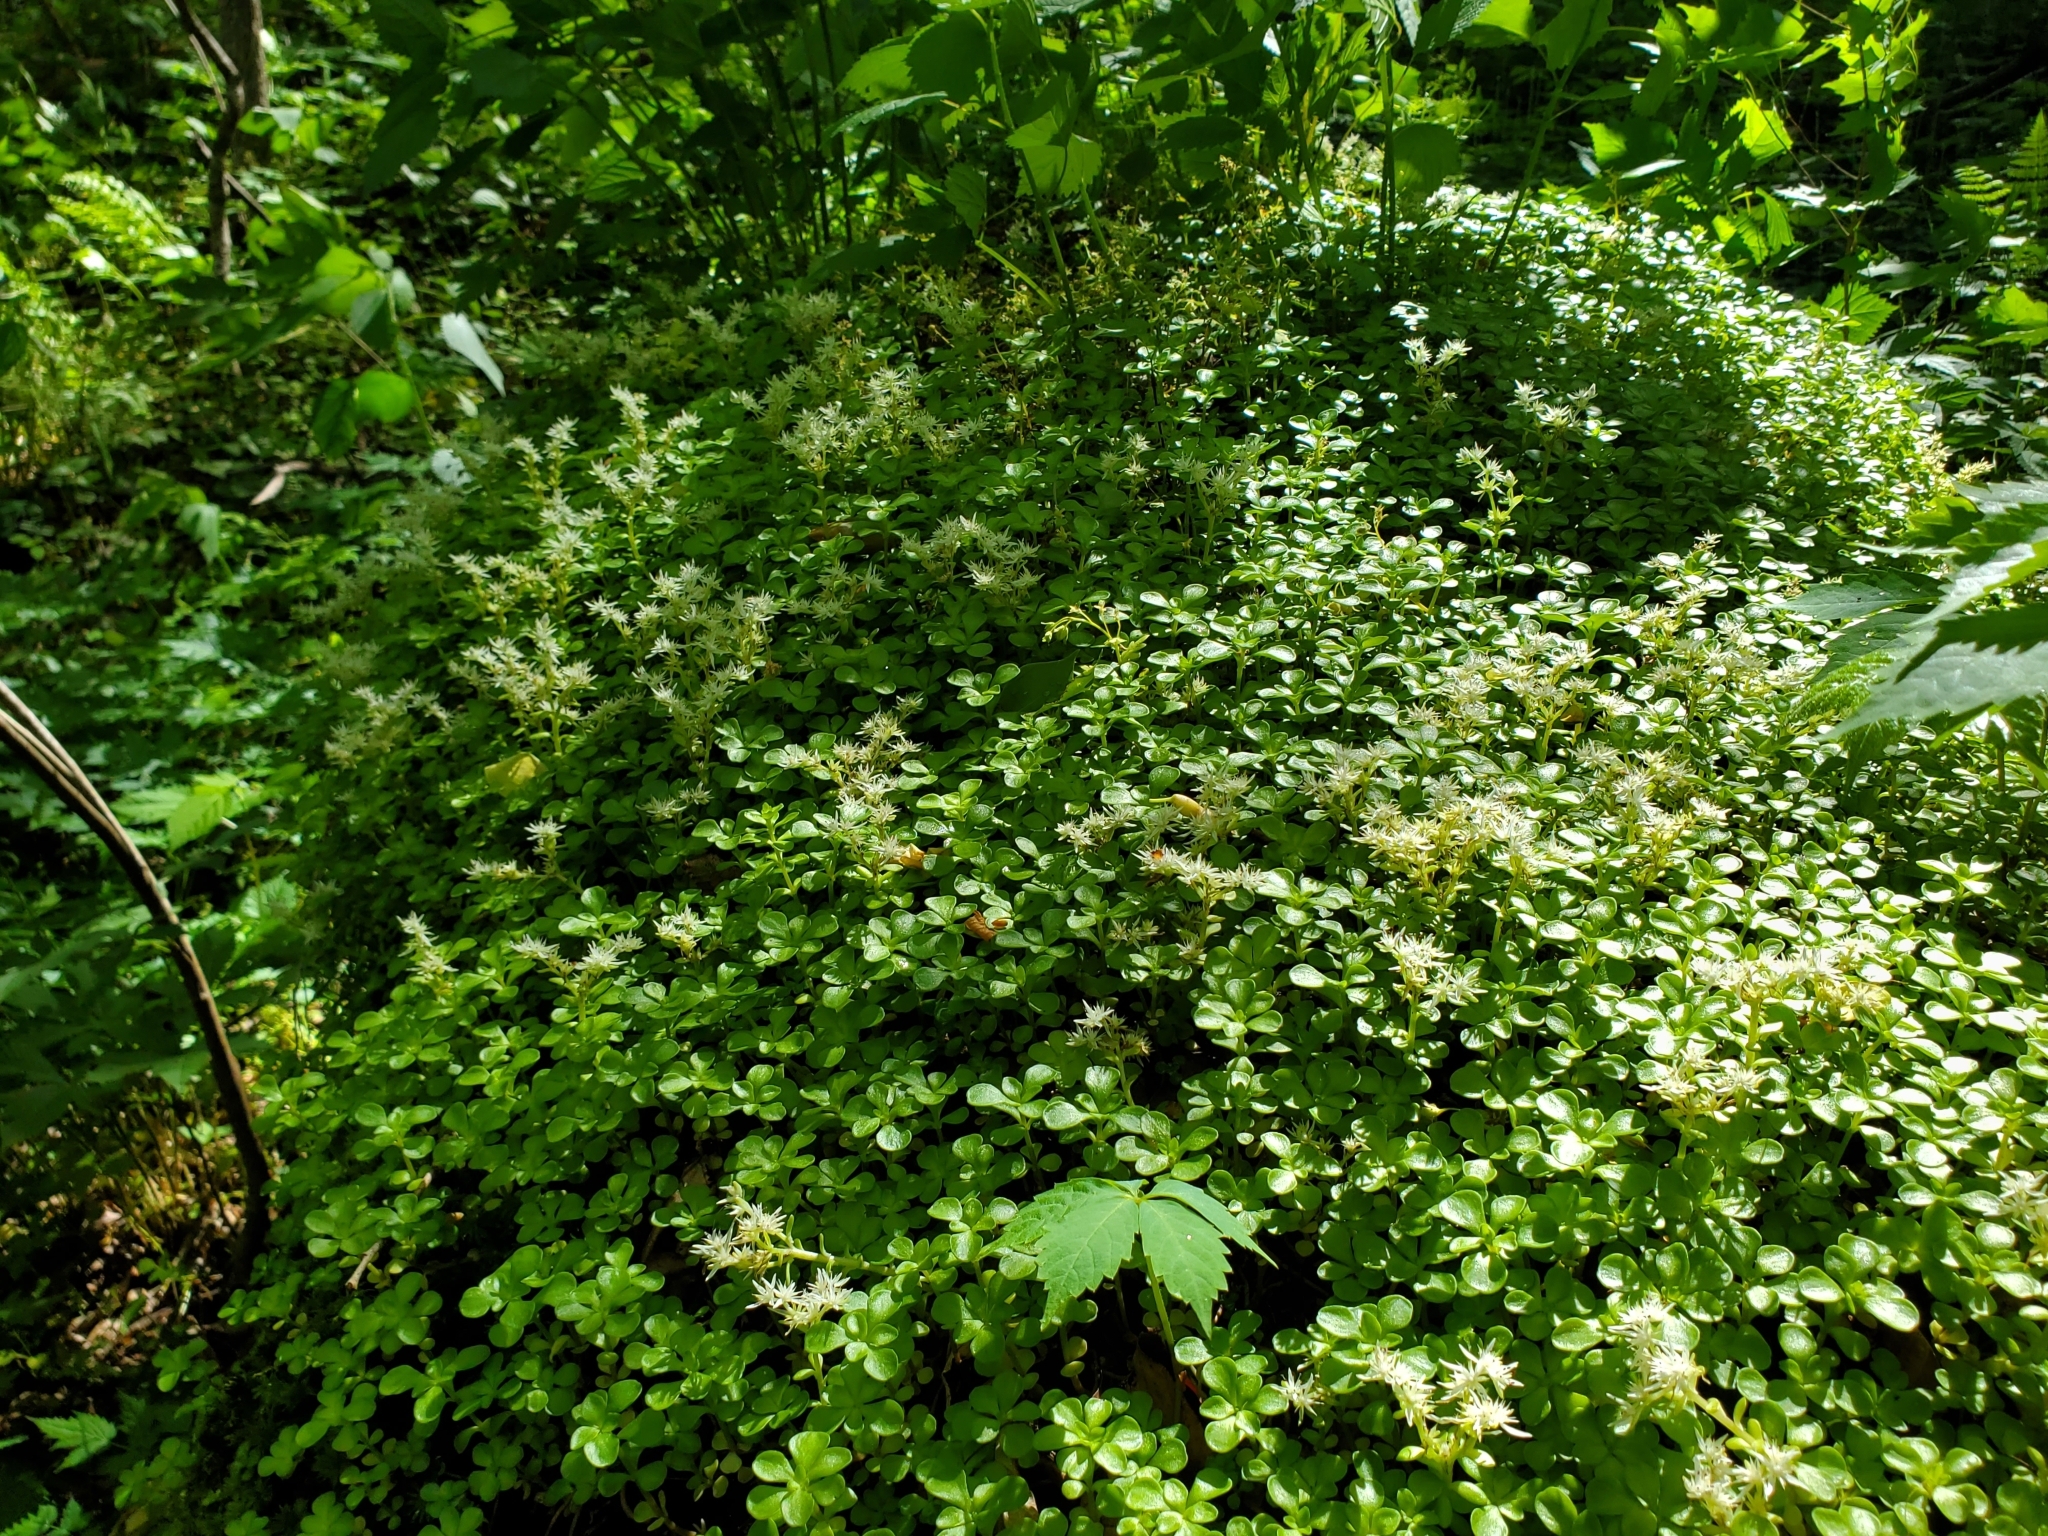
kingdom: Plantae
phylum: Tracheophyta
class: Magnoliopsida
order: Saxifragales
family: Crassulaceae
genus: Sedum
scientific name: Sedum ternatum
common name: Wild stonecrop
